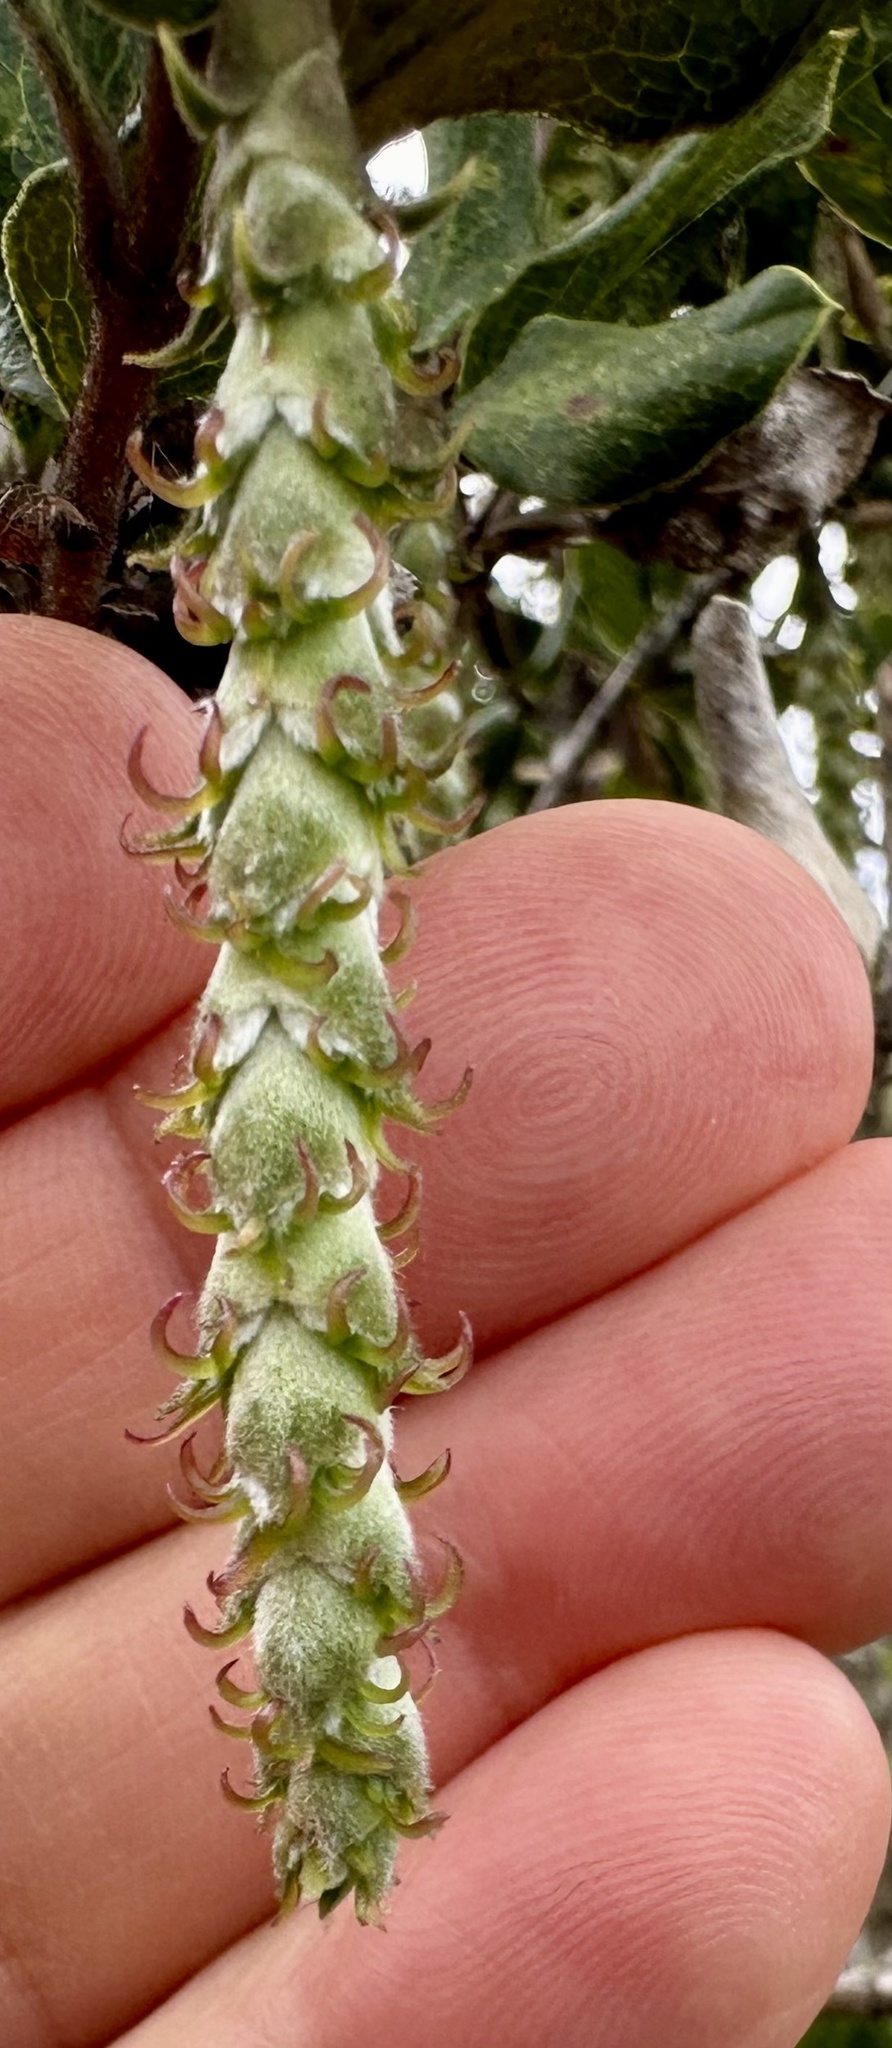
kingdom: Plantae
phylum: Tracheophyta
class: Magnoliopsida
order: Garryales
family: Garryaceae
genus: Garrya
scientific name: Garrya elliptica
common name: Silk-tassel
